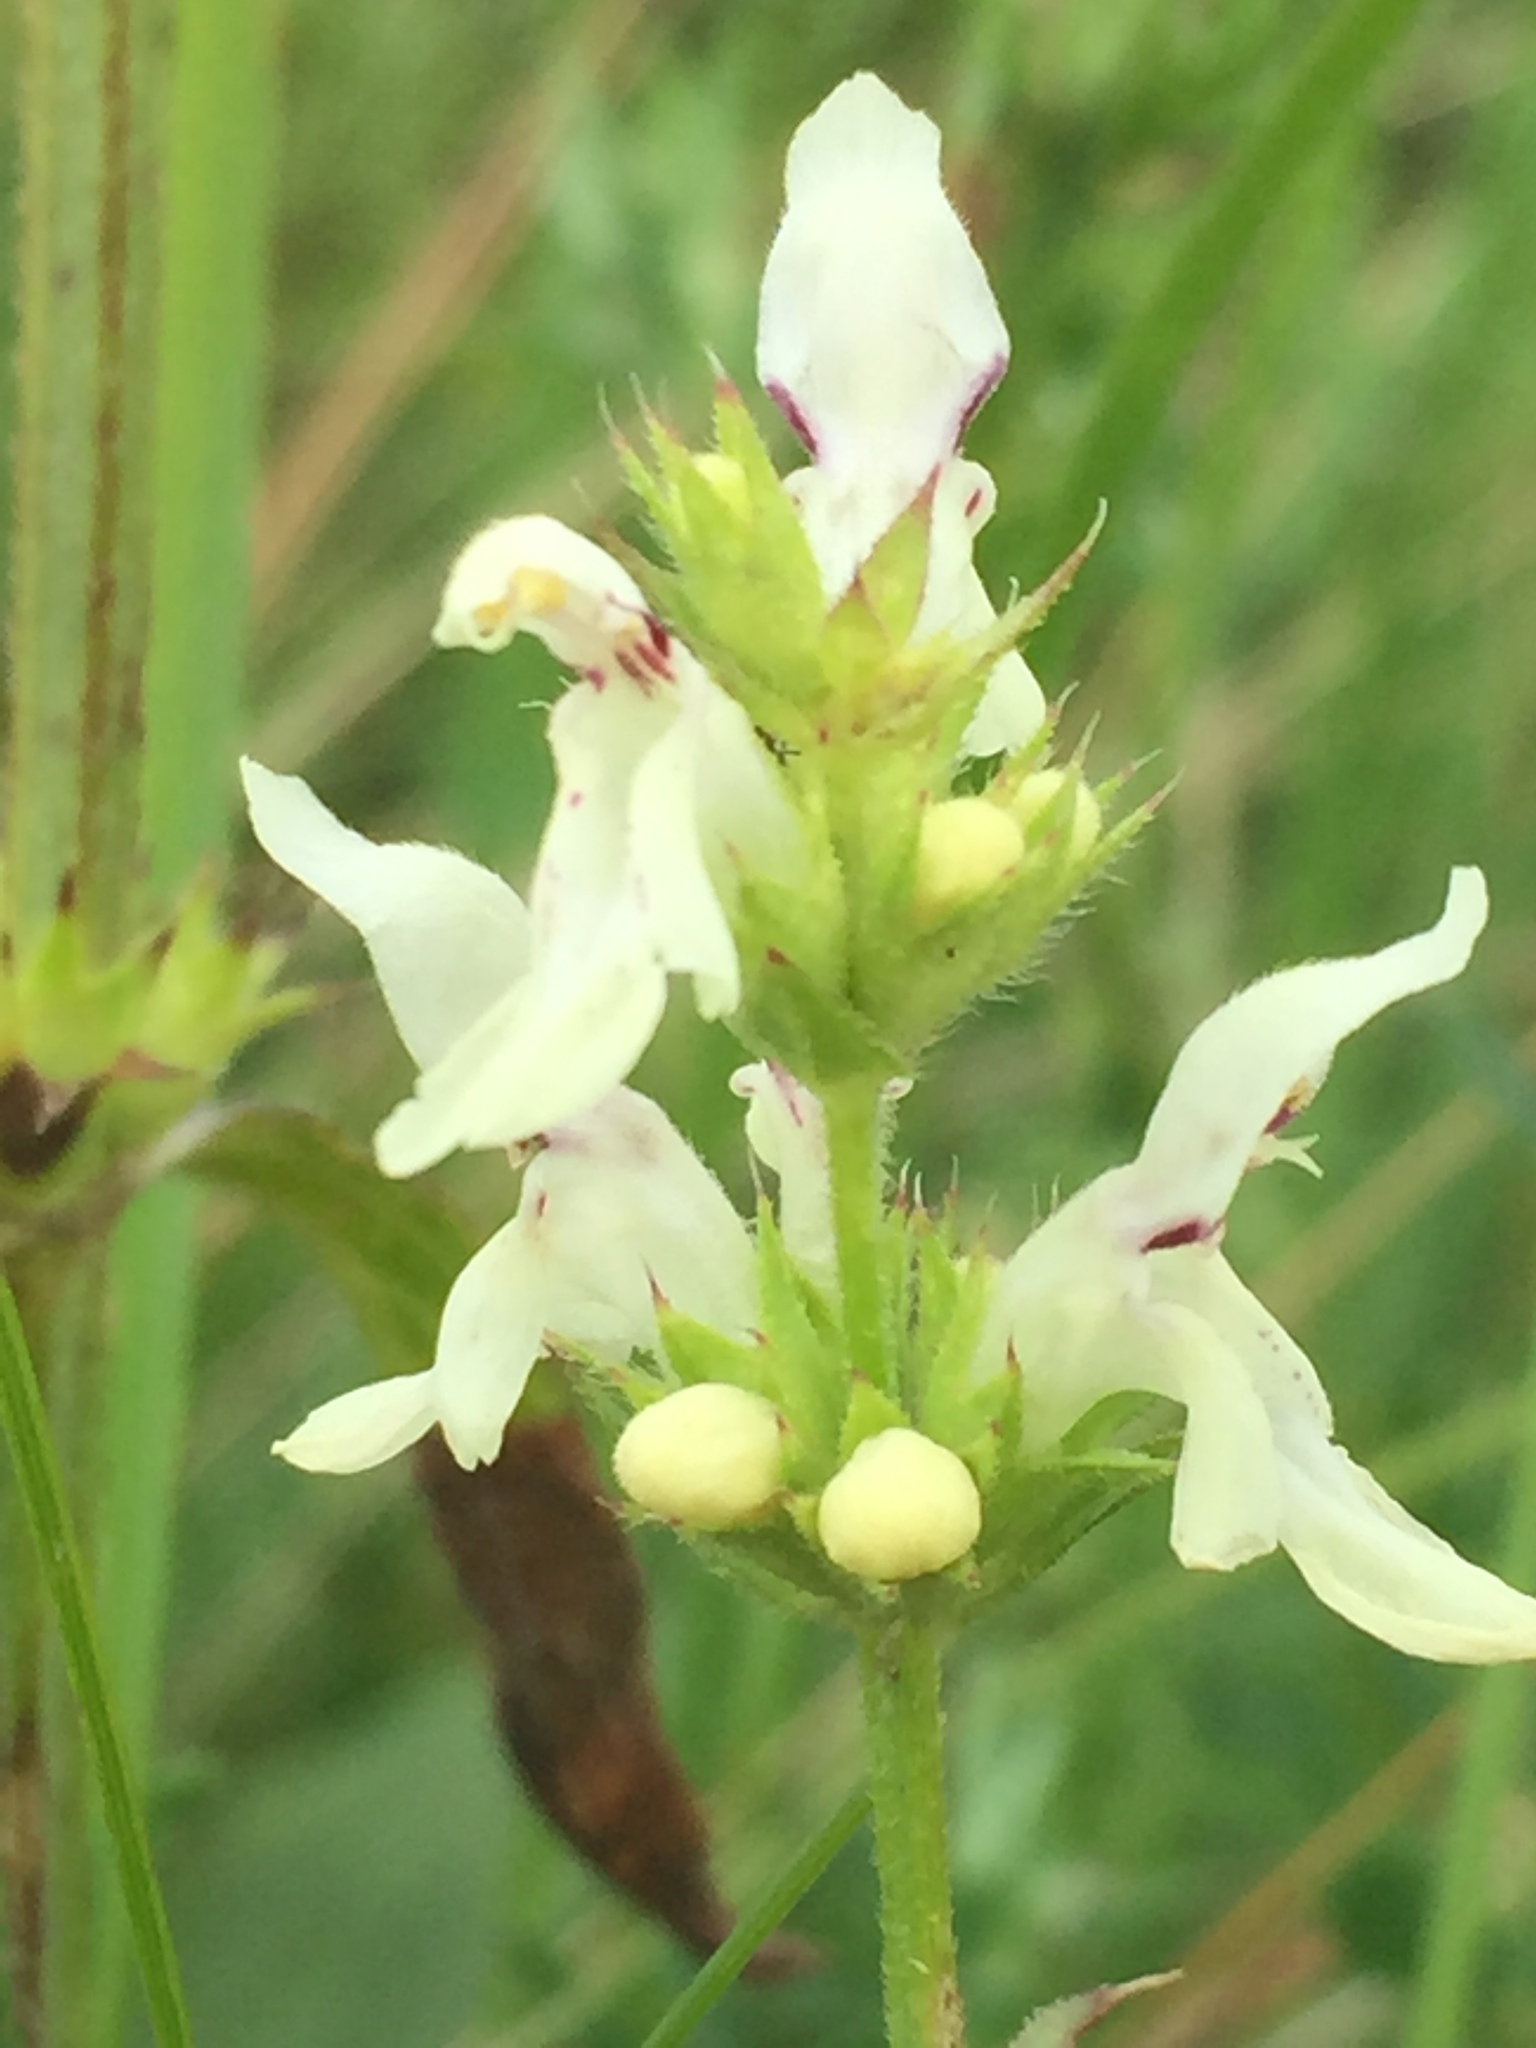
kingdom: Plantae
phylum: Tracheophyta
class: Magnoliopsida
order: Lamiales
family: Lamiaceae
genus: Stachys
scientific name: Stachys recta
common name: Perennial yellow-woundwort
